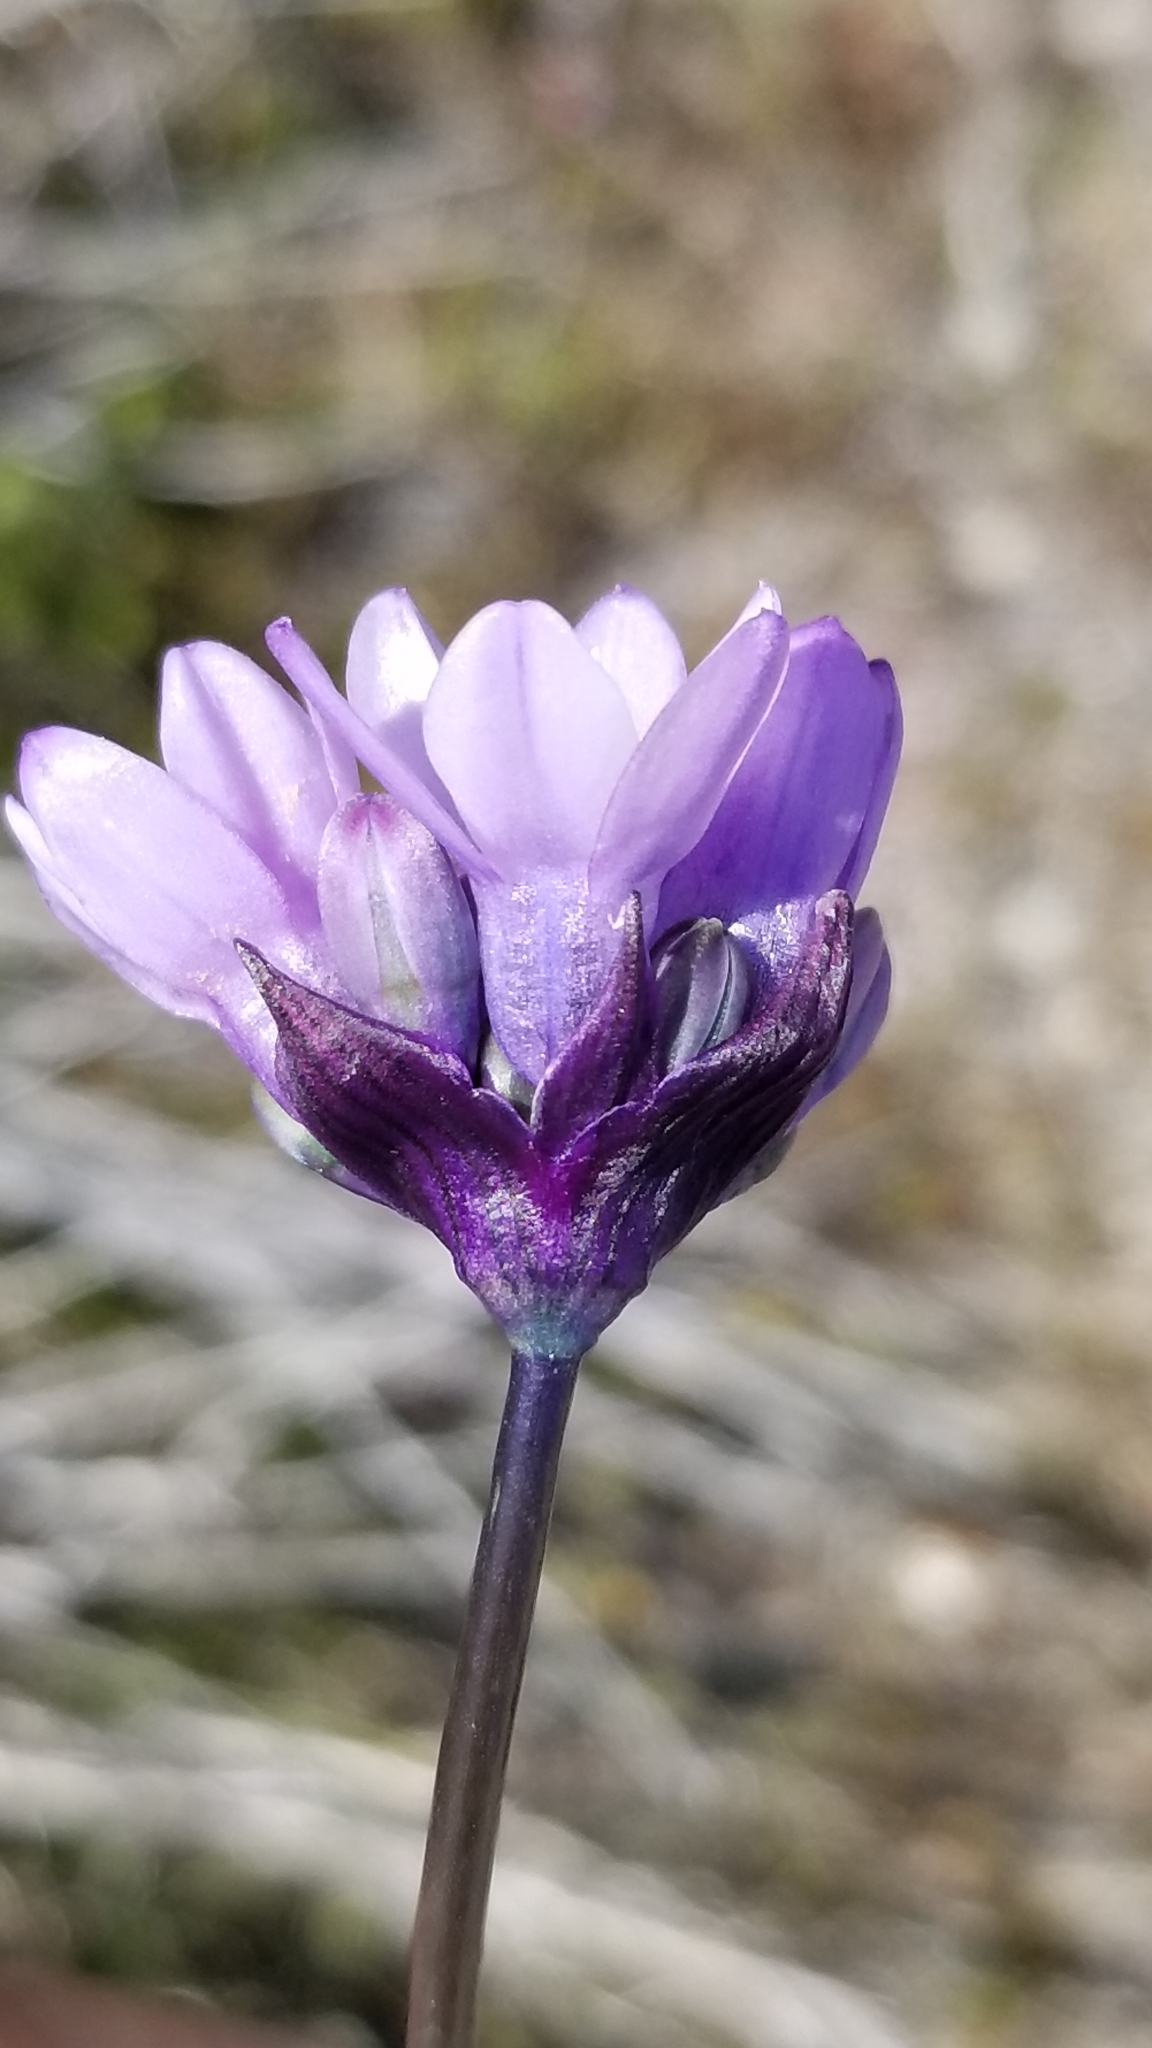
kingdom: Plantae
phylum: Tracheophyta
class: Liliopsida
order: Asparagales
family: Asparagaceae
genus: Dipterostemon
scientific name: Dipterostemon capitatus
